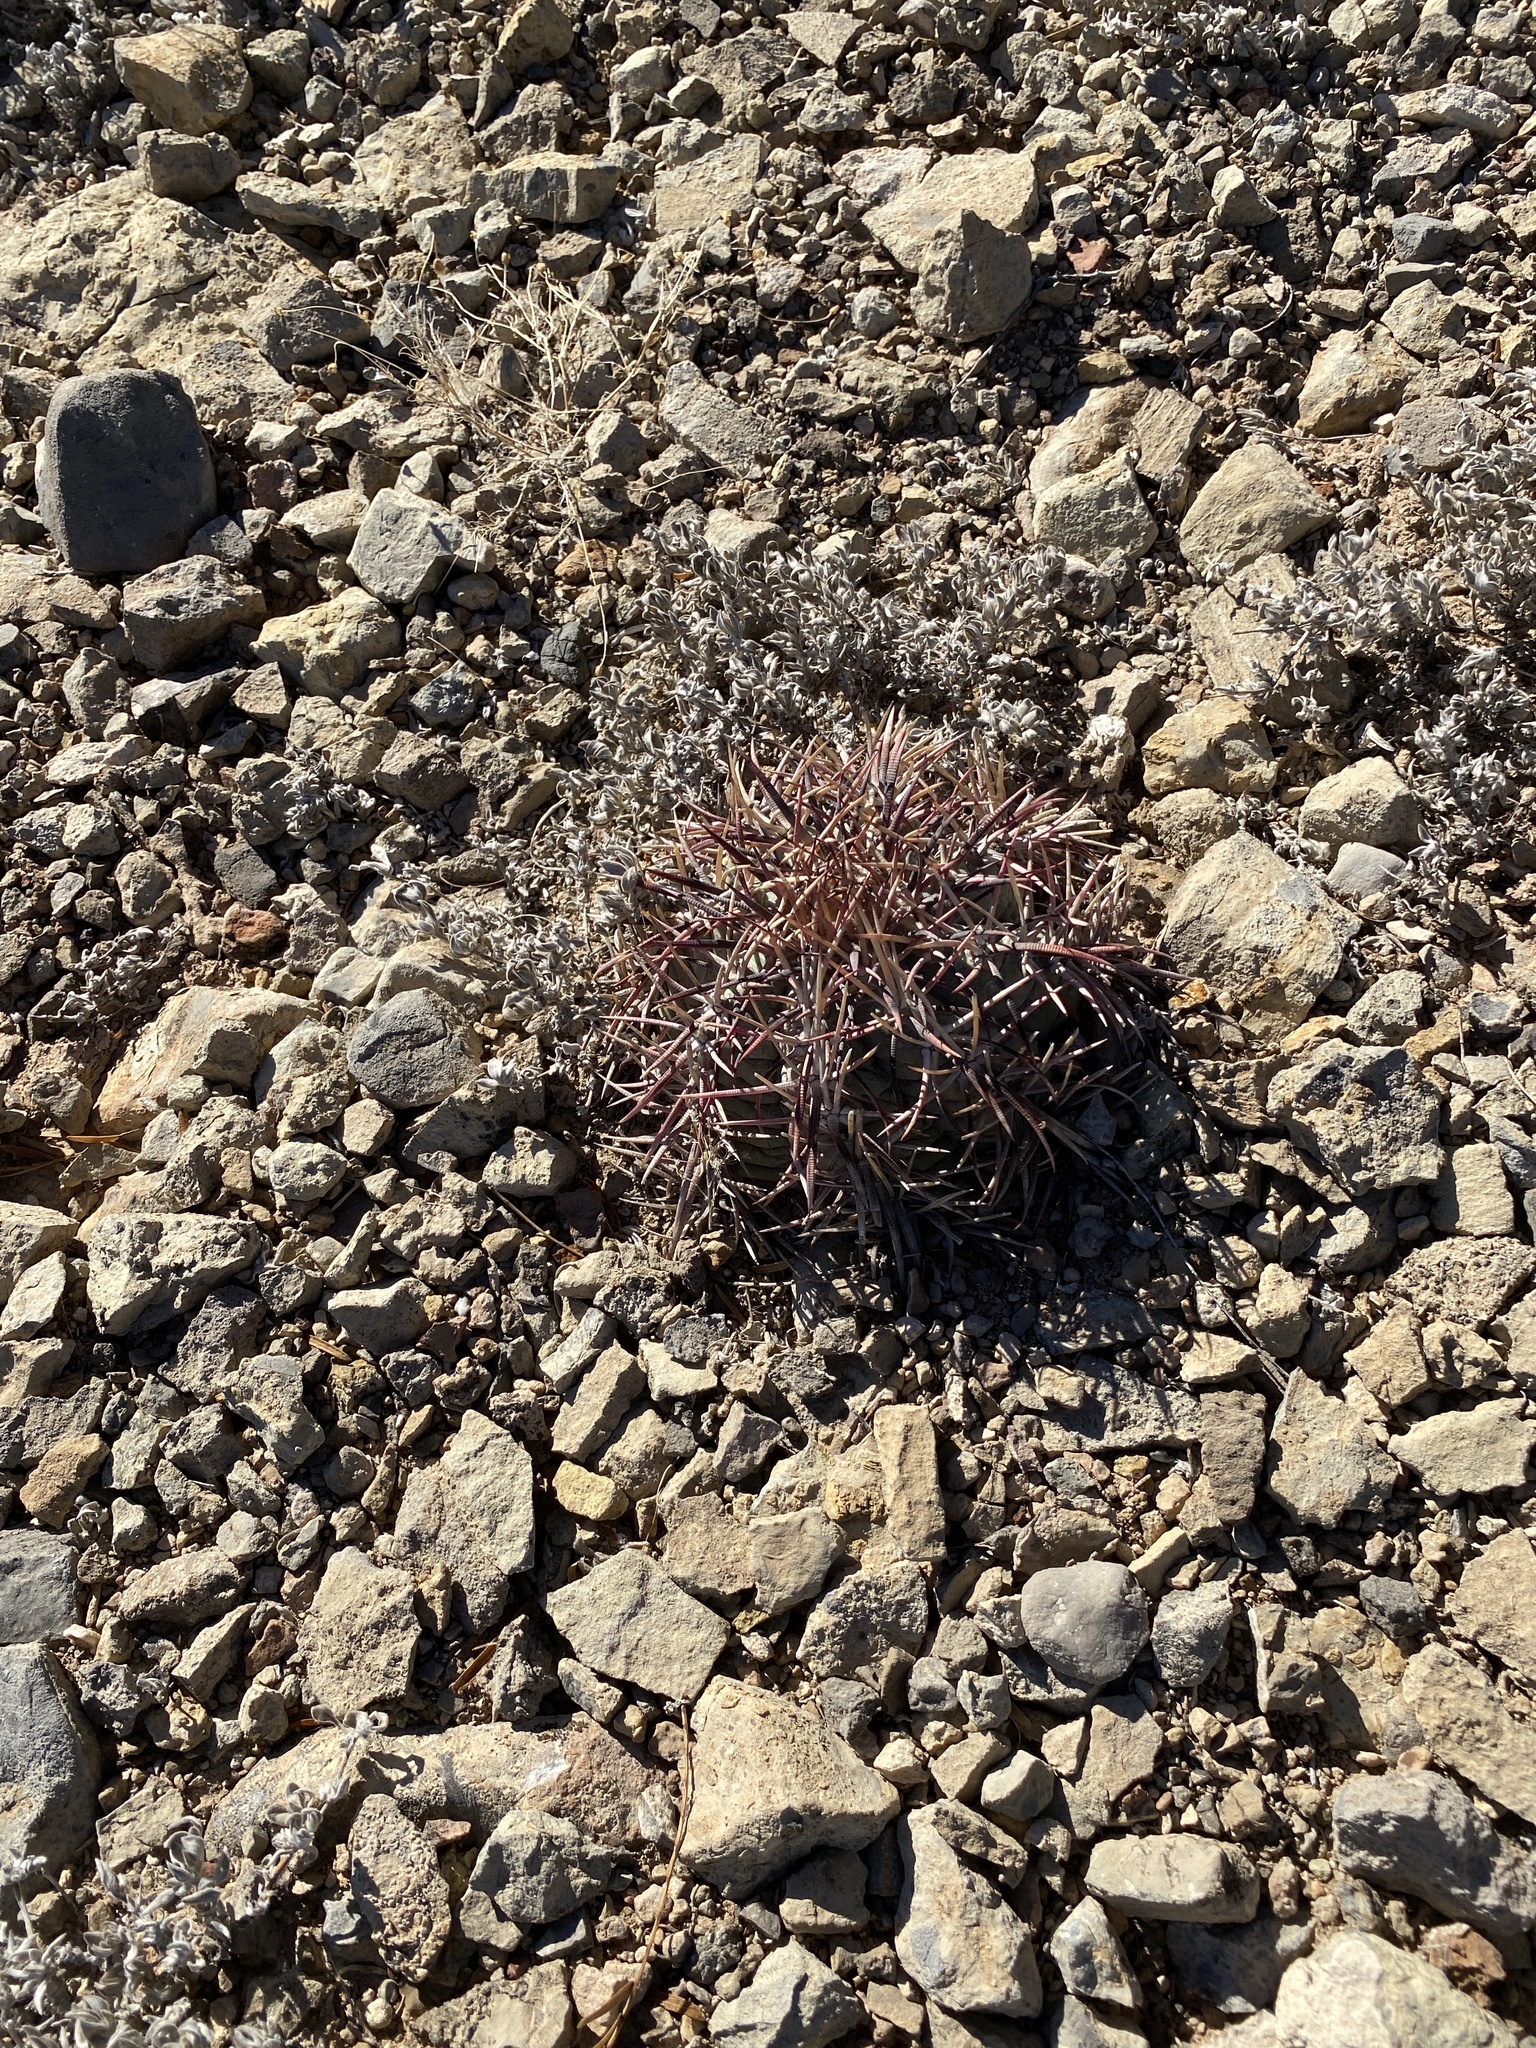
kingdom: Plantae
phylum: Tracheophyta
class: Magnoliopsida
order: Caryophyllales
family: Cactaceae
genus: Echinocactus
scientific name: Echinocactus horizonthalonius
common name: Devilshead
